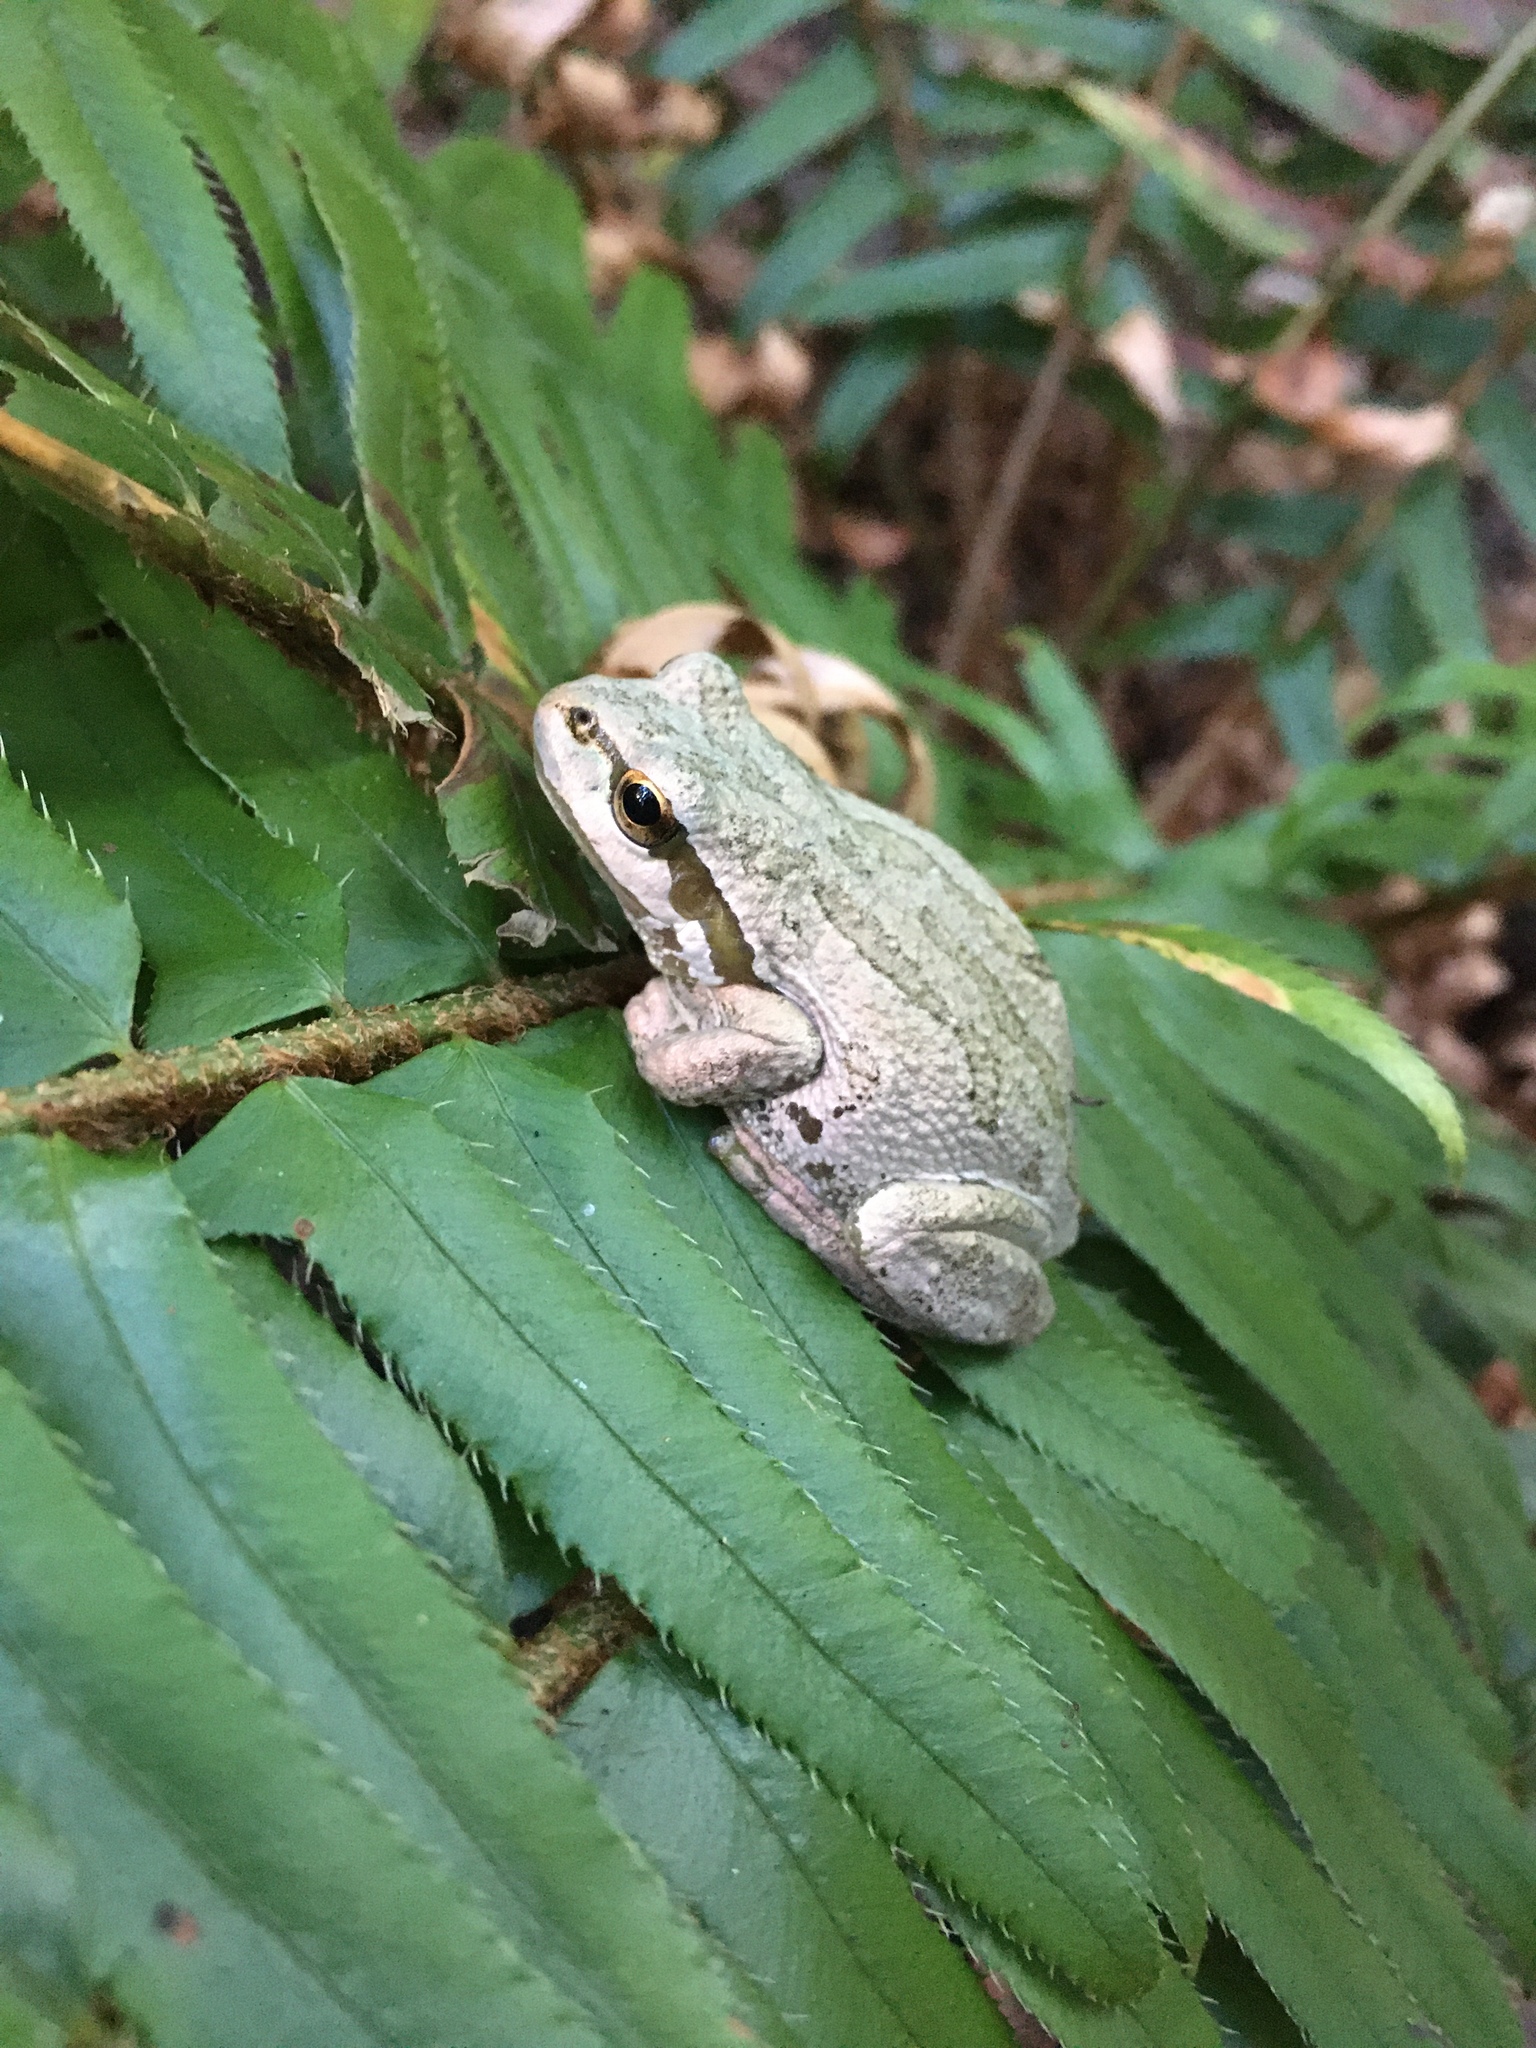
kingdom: Animalia
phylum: Chordata
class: Amphibia
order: Anura
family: Hylidae
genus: Pseudacris
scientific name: Pseudacris regilla
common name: Pacific chorus frog
